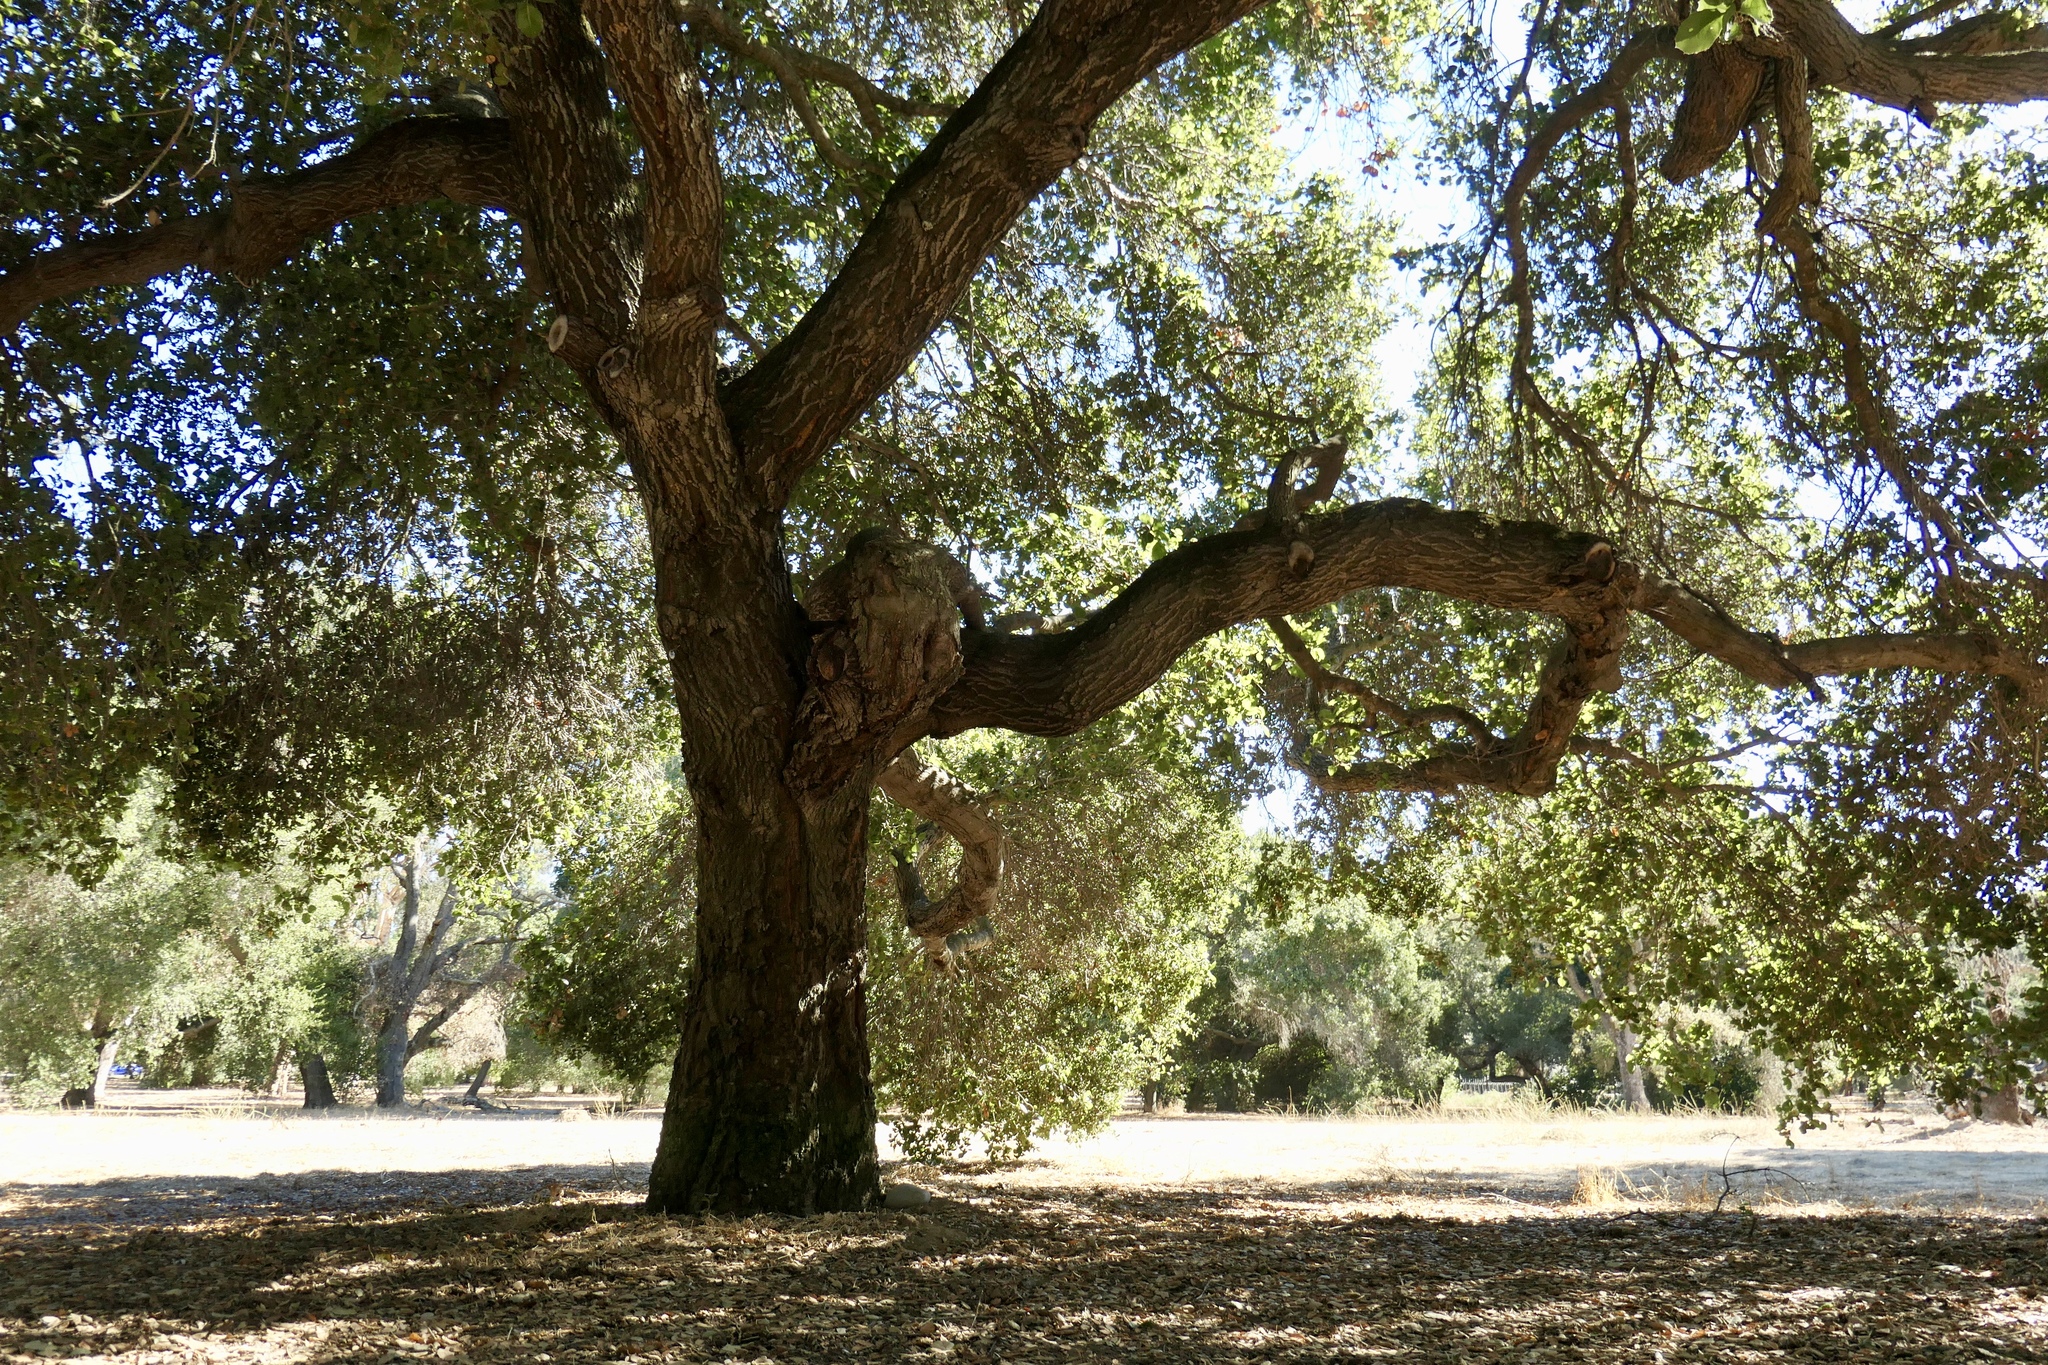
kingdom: Plantae
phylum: Tracheophyta
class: Magnoliopsida
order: Fagales
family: Fagaceae
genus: Quercus
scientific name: Quercus agrifolia
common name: California live oak
